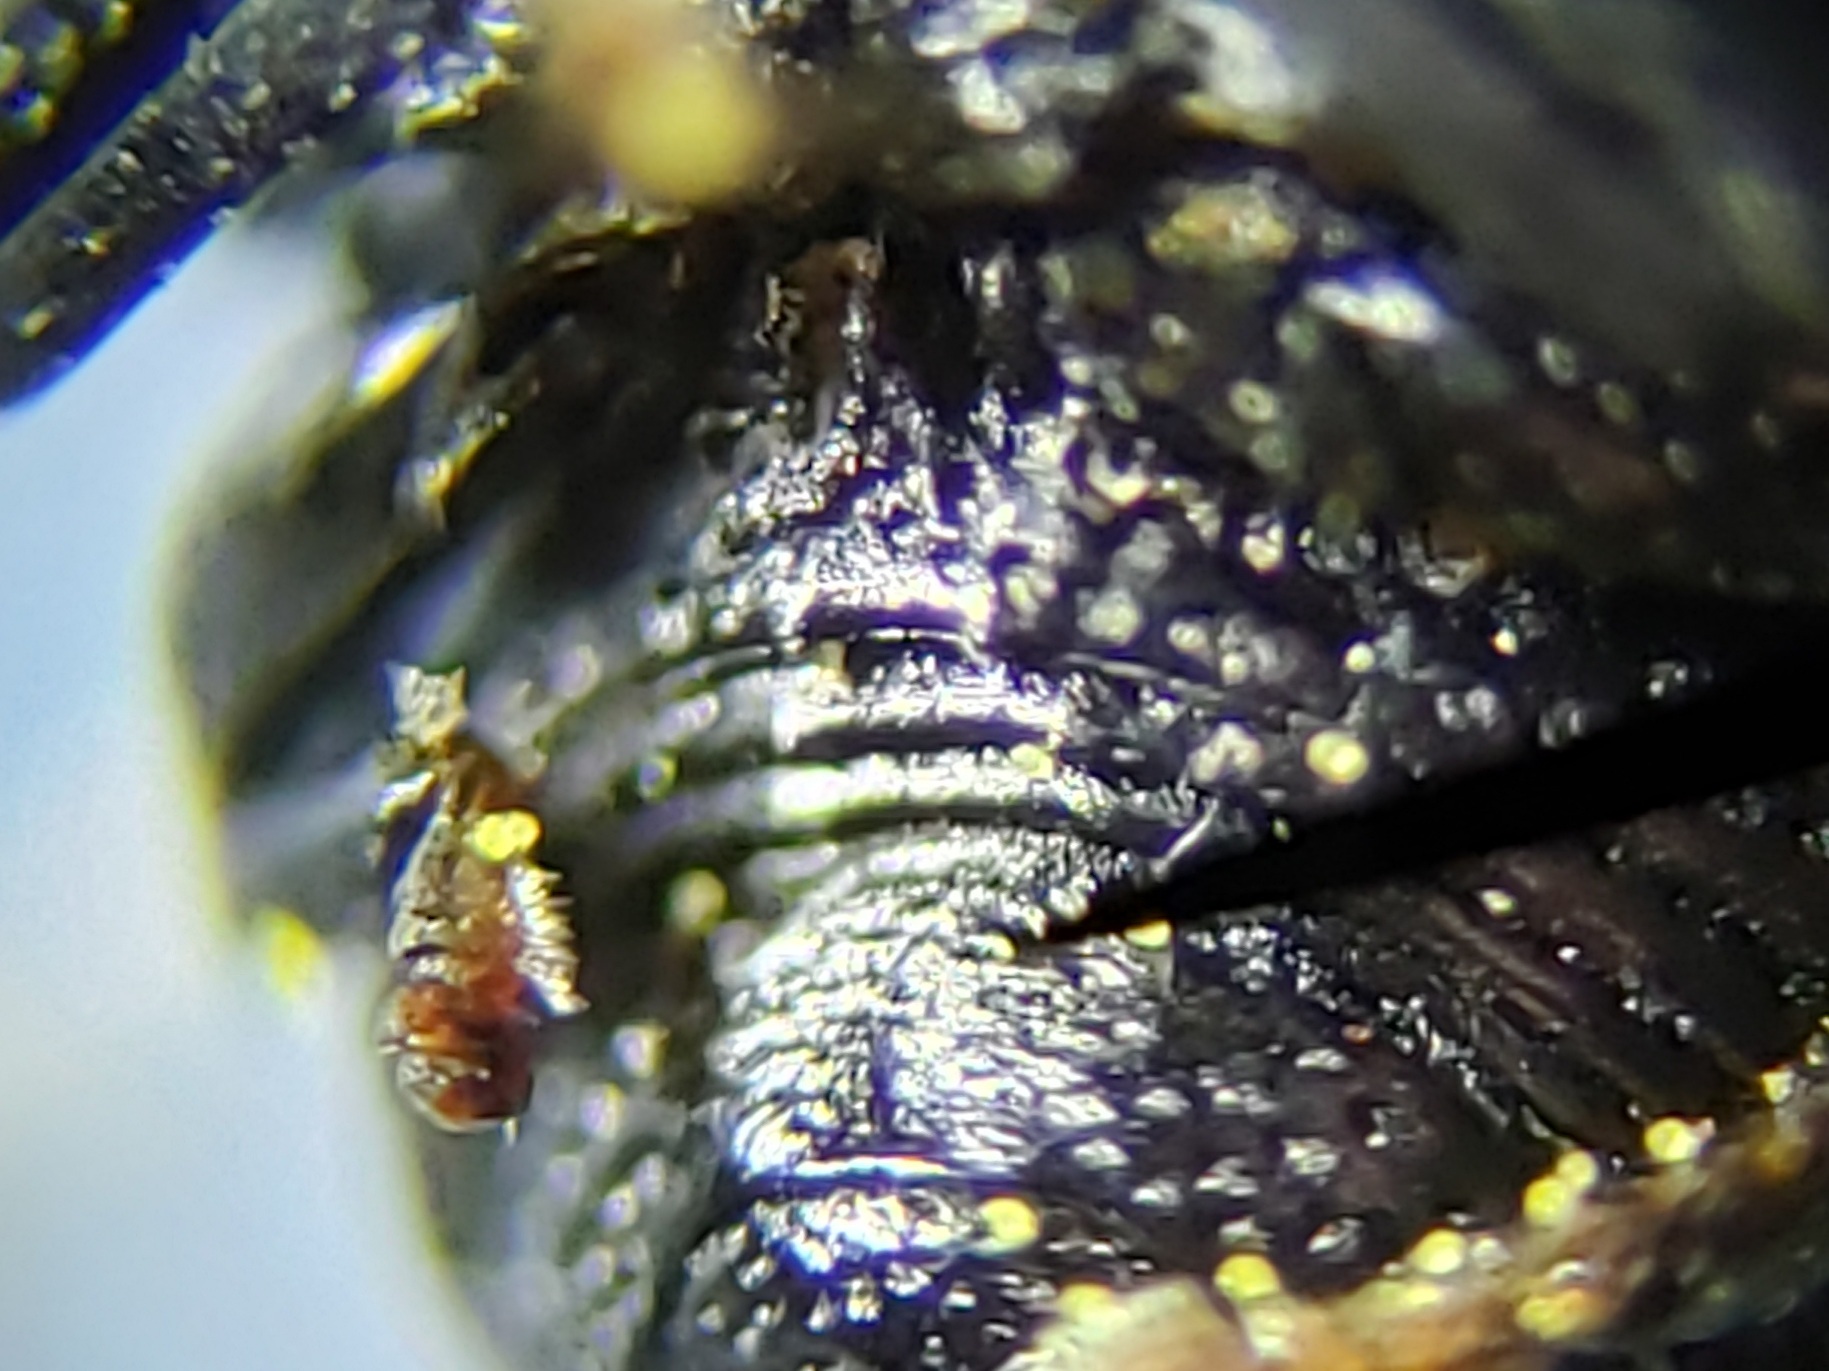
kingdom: Animalia
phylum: Arthropoda
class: Insecta
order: Coleoptera
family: Chrysomelidae
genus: Exema
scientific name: Exema neglecta
